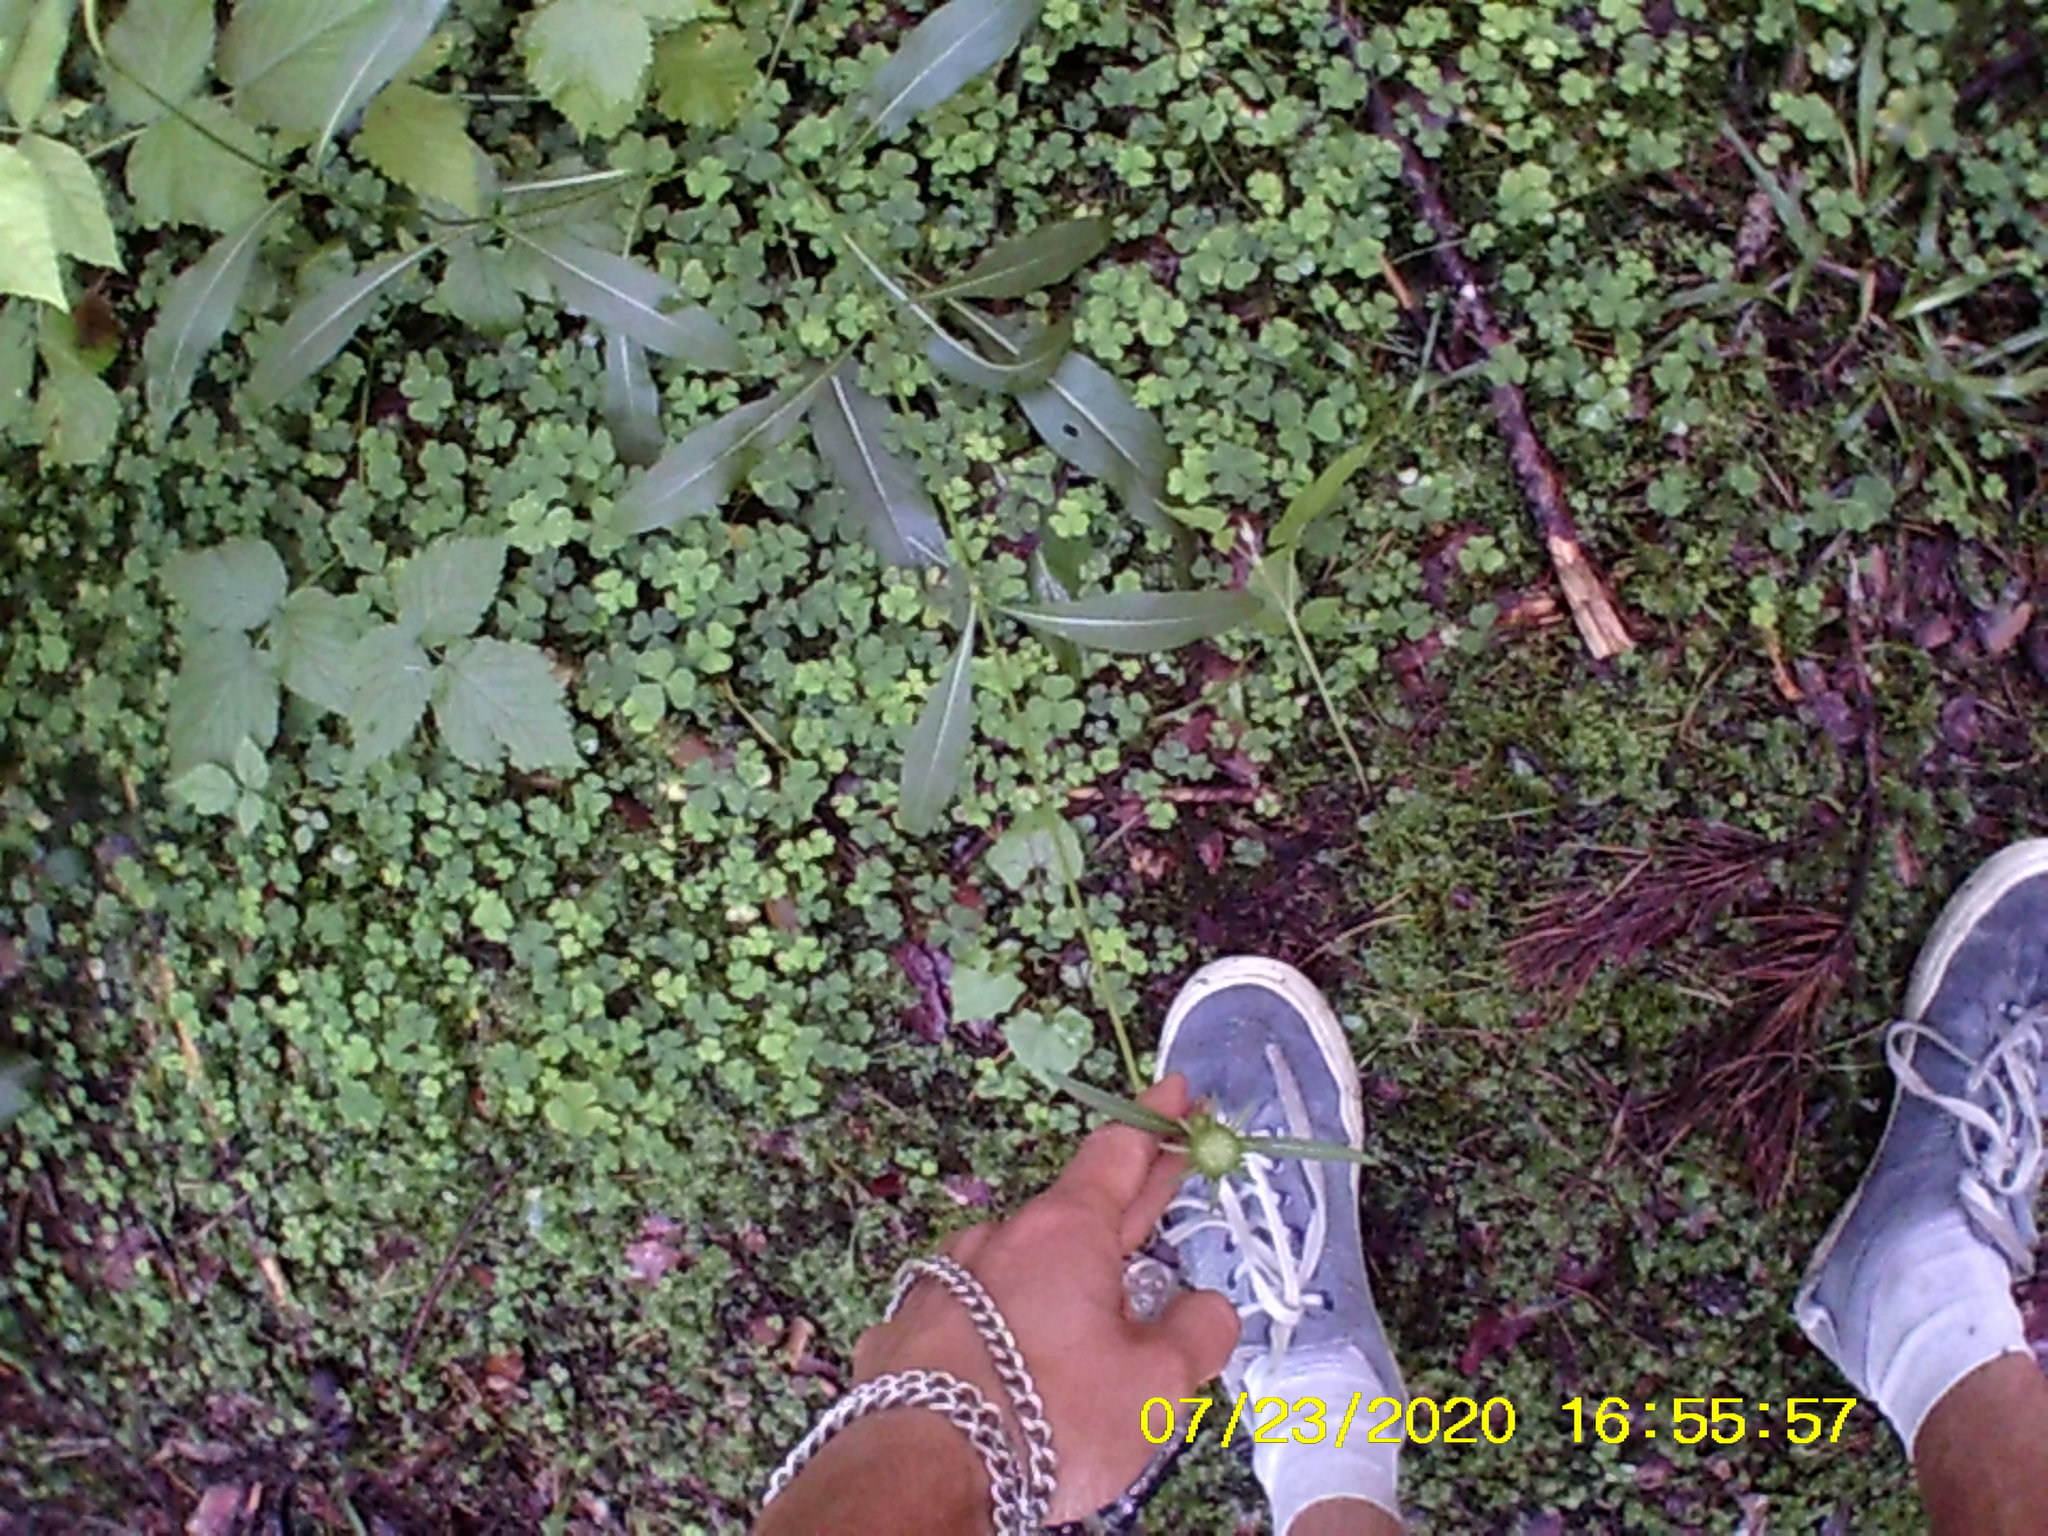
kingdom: Plantae
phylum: Tracheophyta
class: Magnoliopsida
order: Dipsacales
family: Caprifoliaceae
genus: Succisa
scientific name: Succisa pratensis
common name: Devil's-bit
